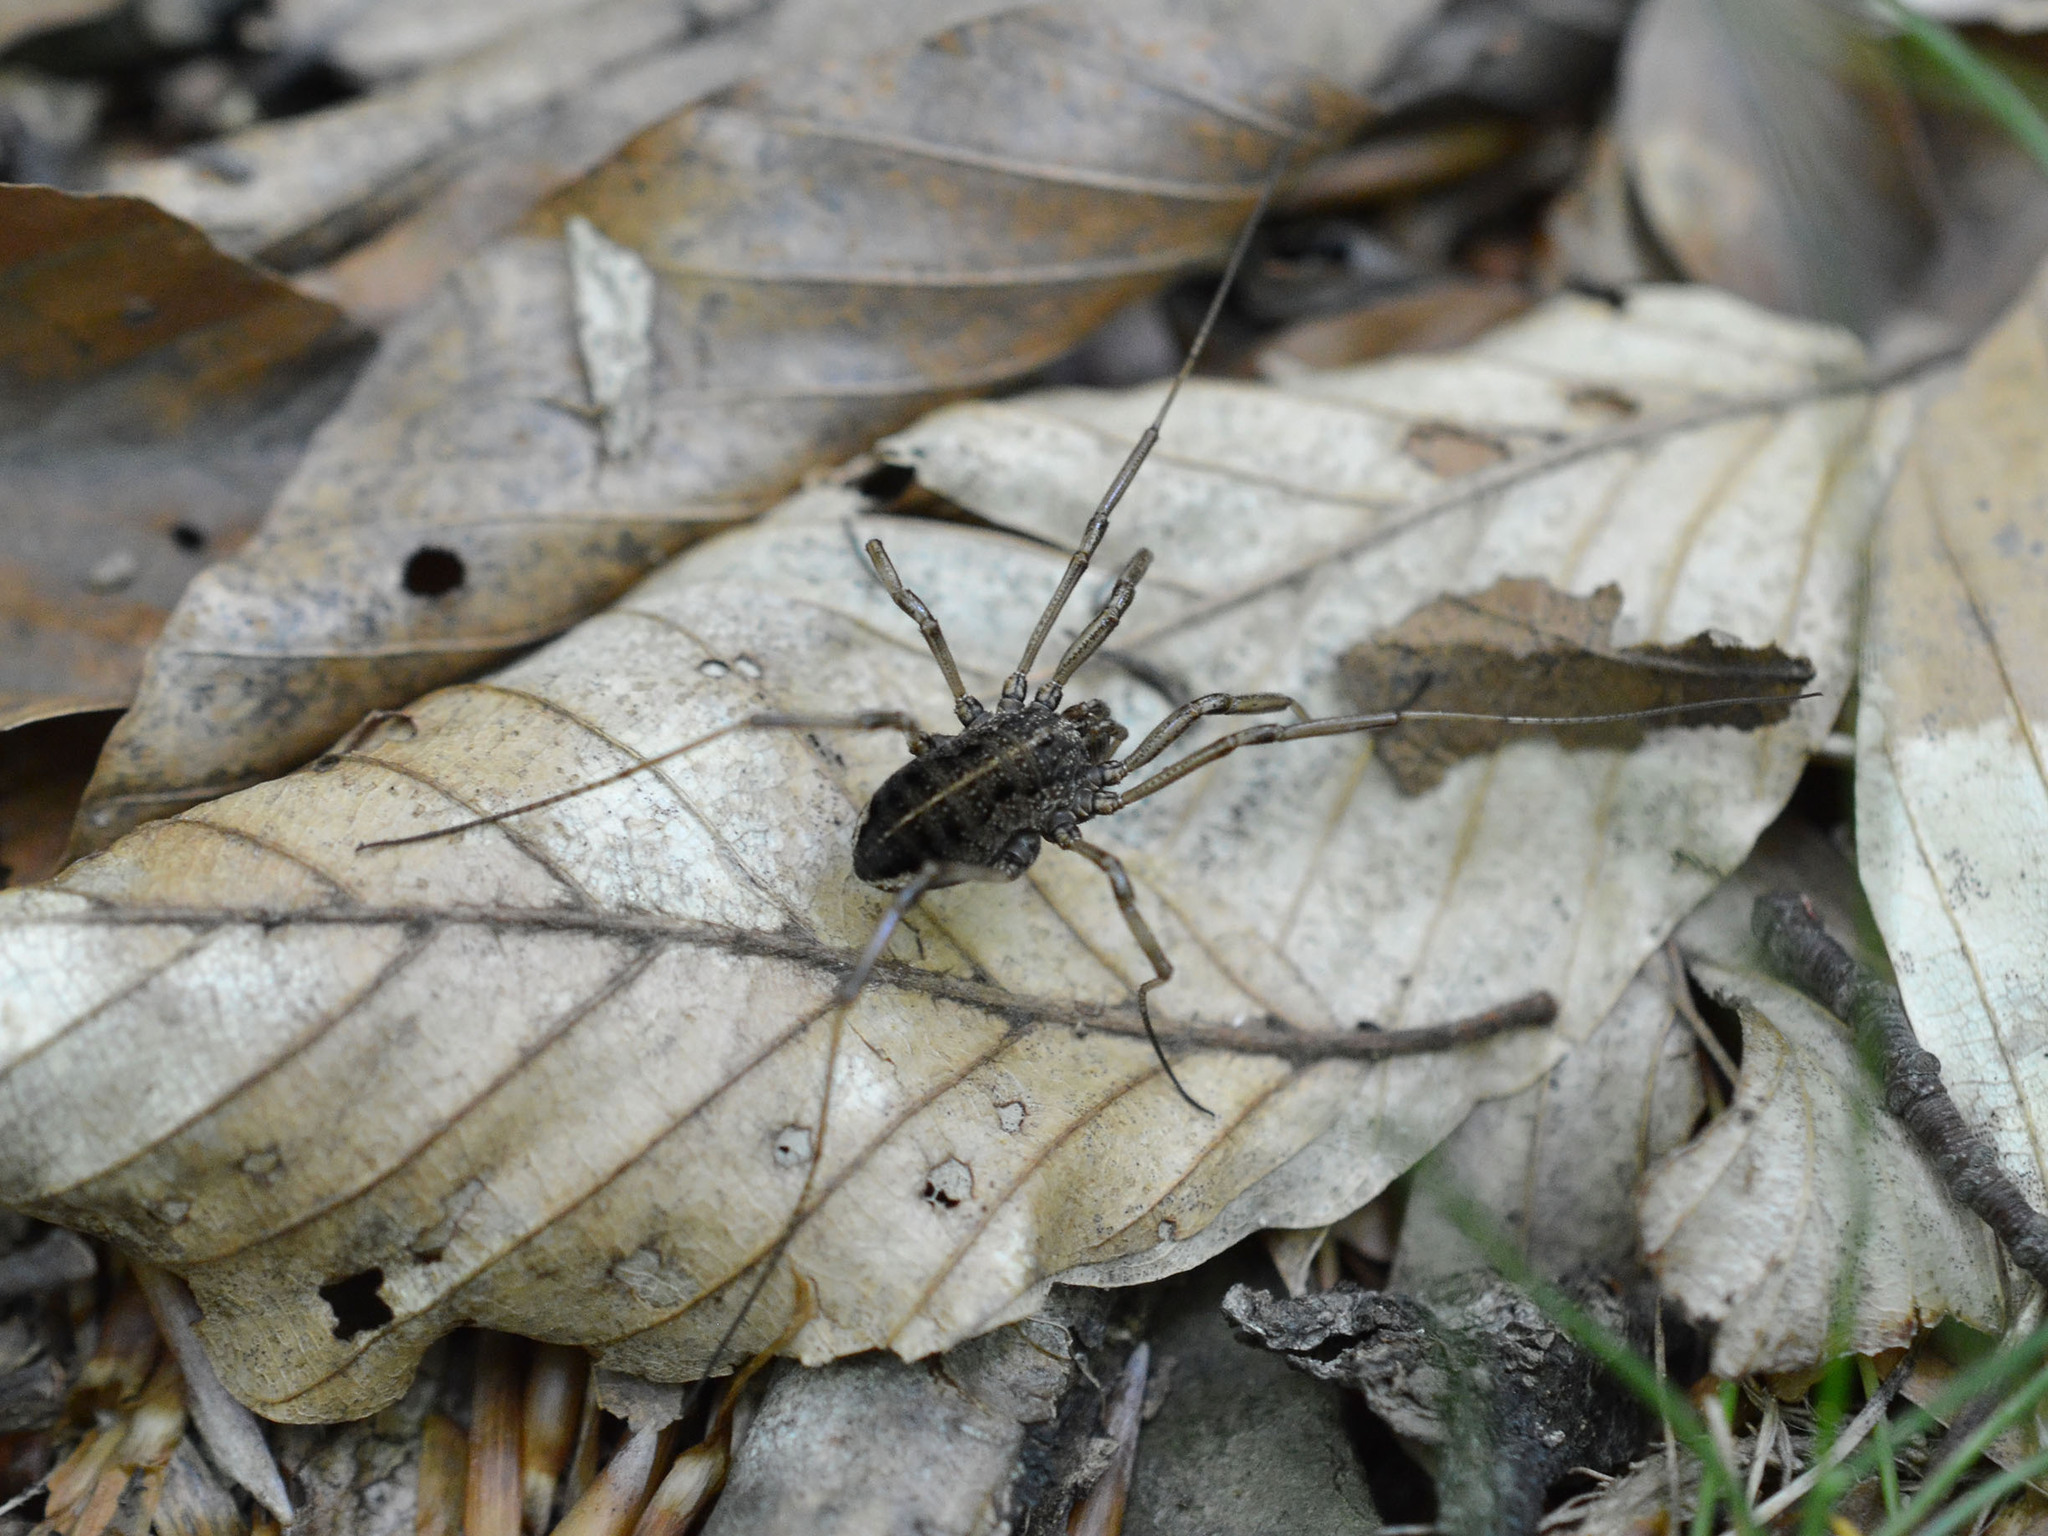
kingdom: Animalia
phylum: Arthropoda
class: Arachnida
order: Opiliones
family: Phalangiidae
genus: Zachaeus
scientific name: Zachaeus crista
